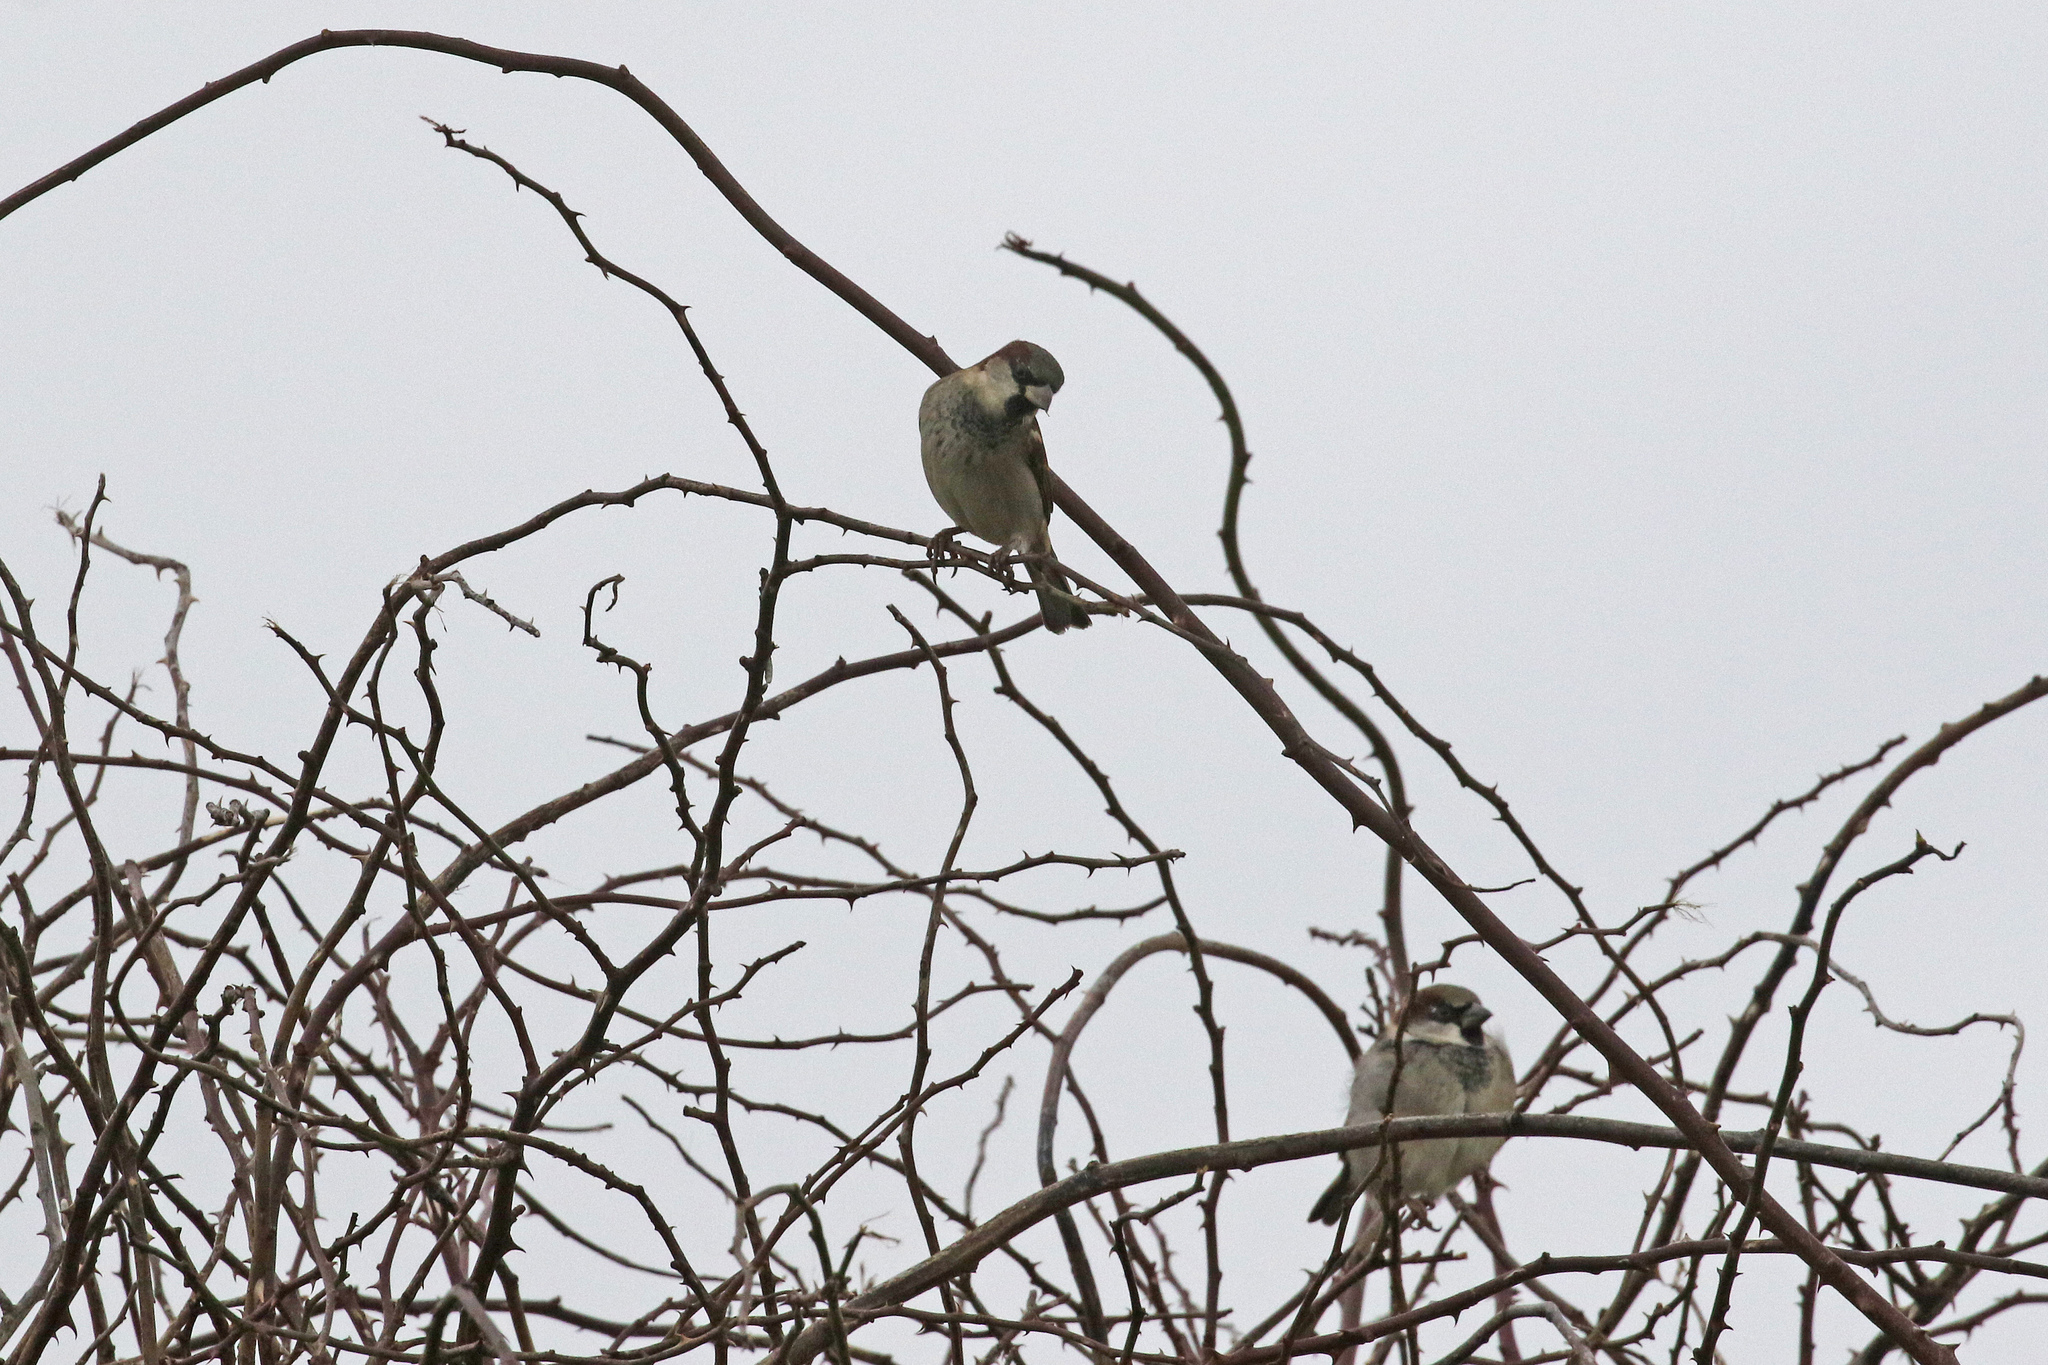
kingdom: Animalia
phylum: Chordata
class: Aves
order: Passeriformes
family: Passeridae
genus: Passer
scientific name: Passer domesticus
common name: House sparrow
